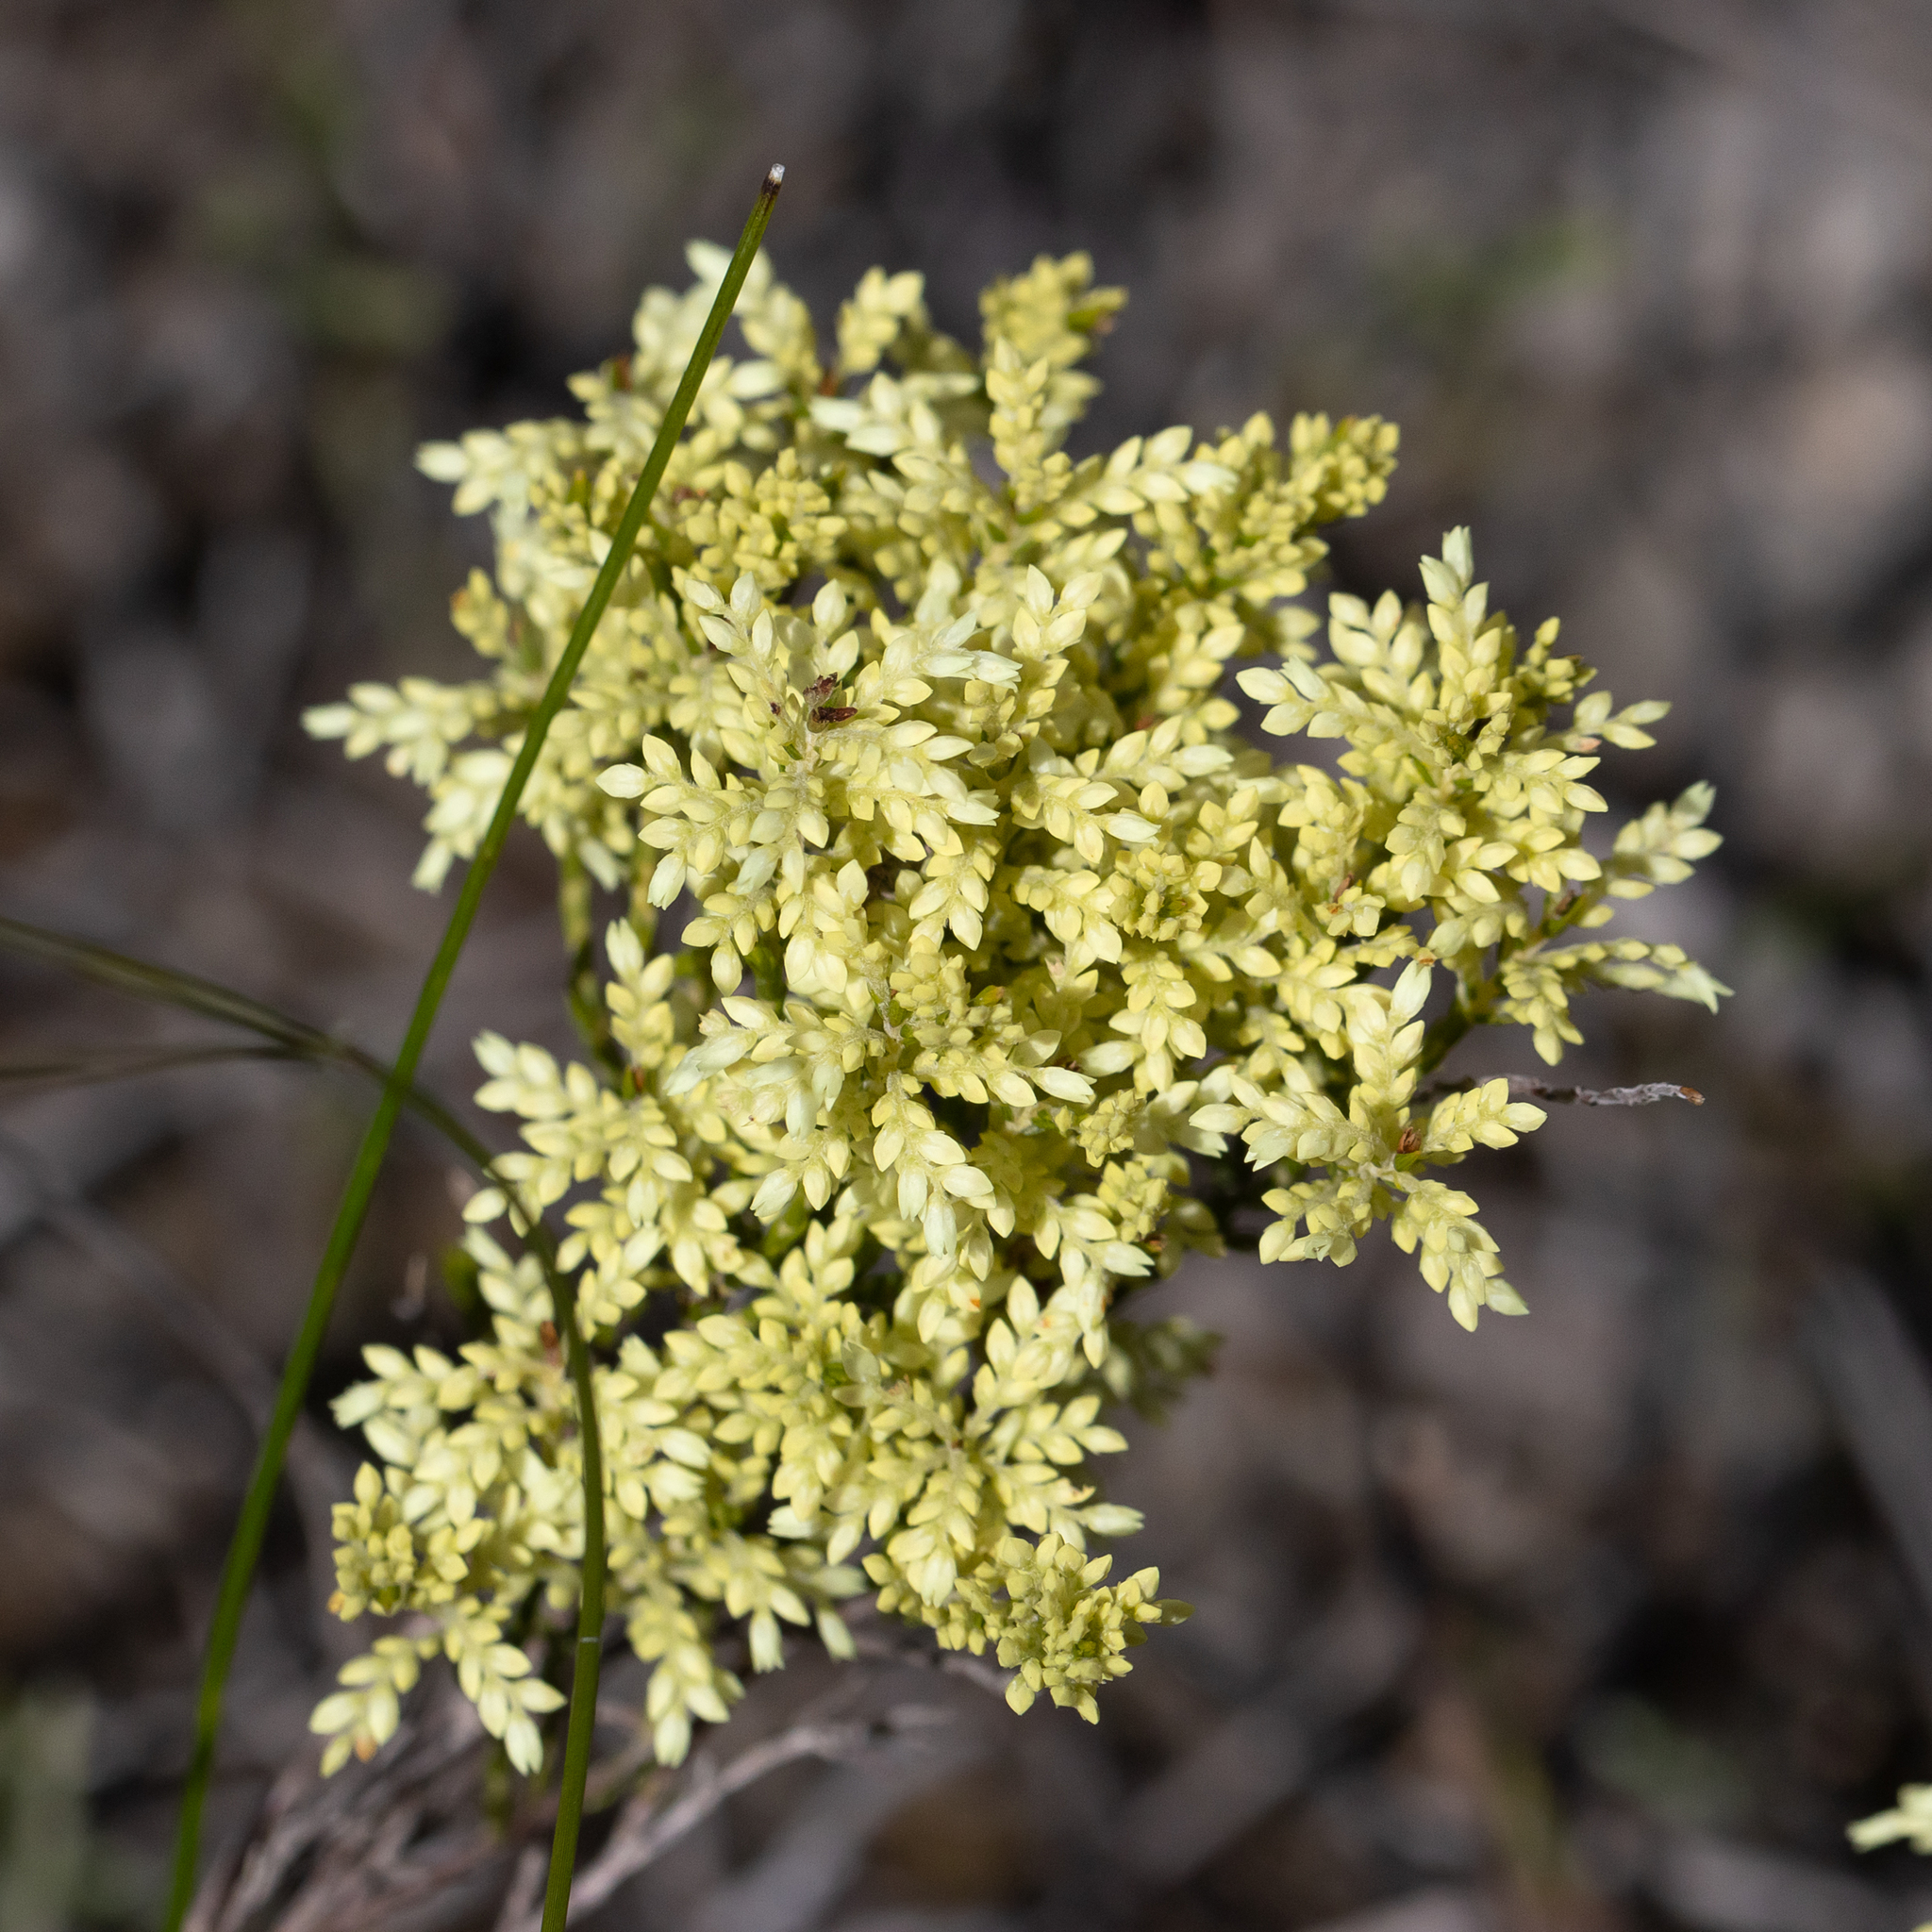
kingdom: Plantae
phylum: Tracheophyta
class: Magnoliopsida
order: Ericales
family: Ericaceae
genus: Oligarrhena
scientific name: Oligarrhena micrantha
